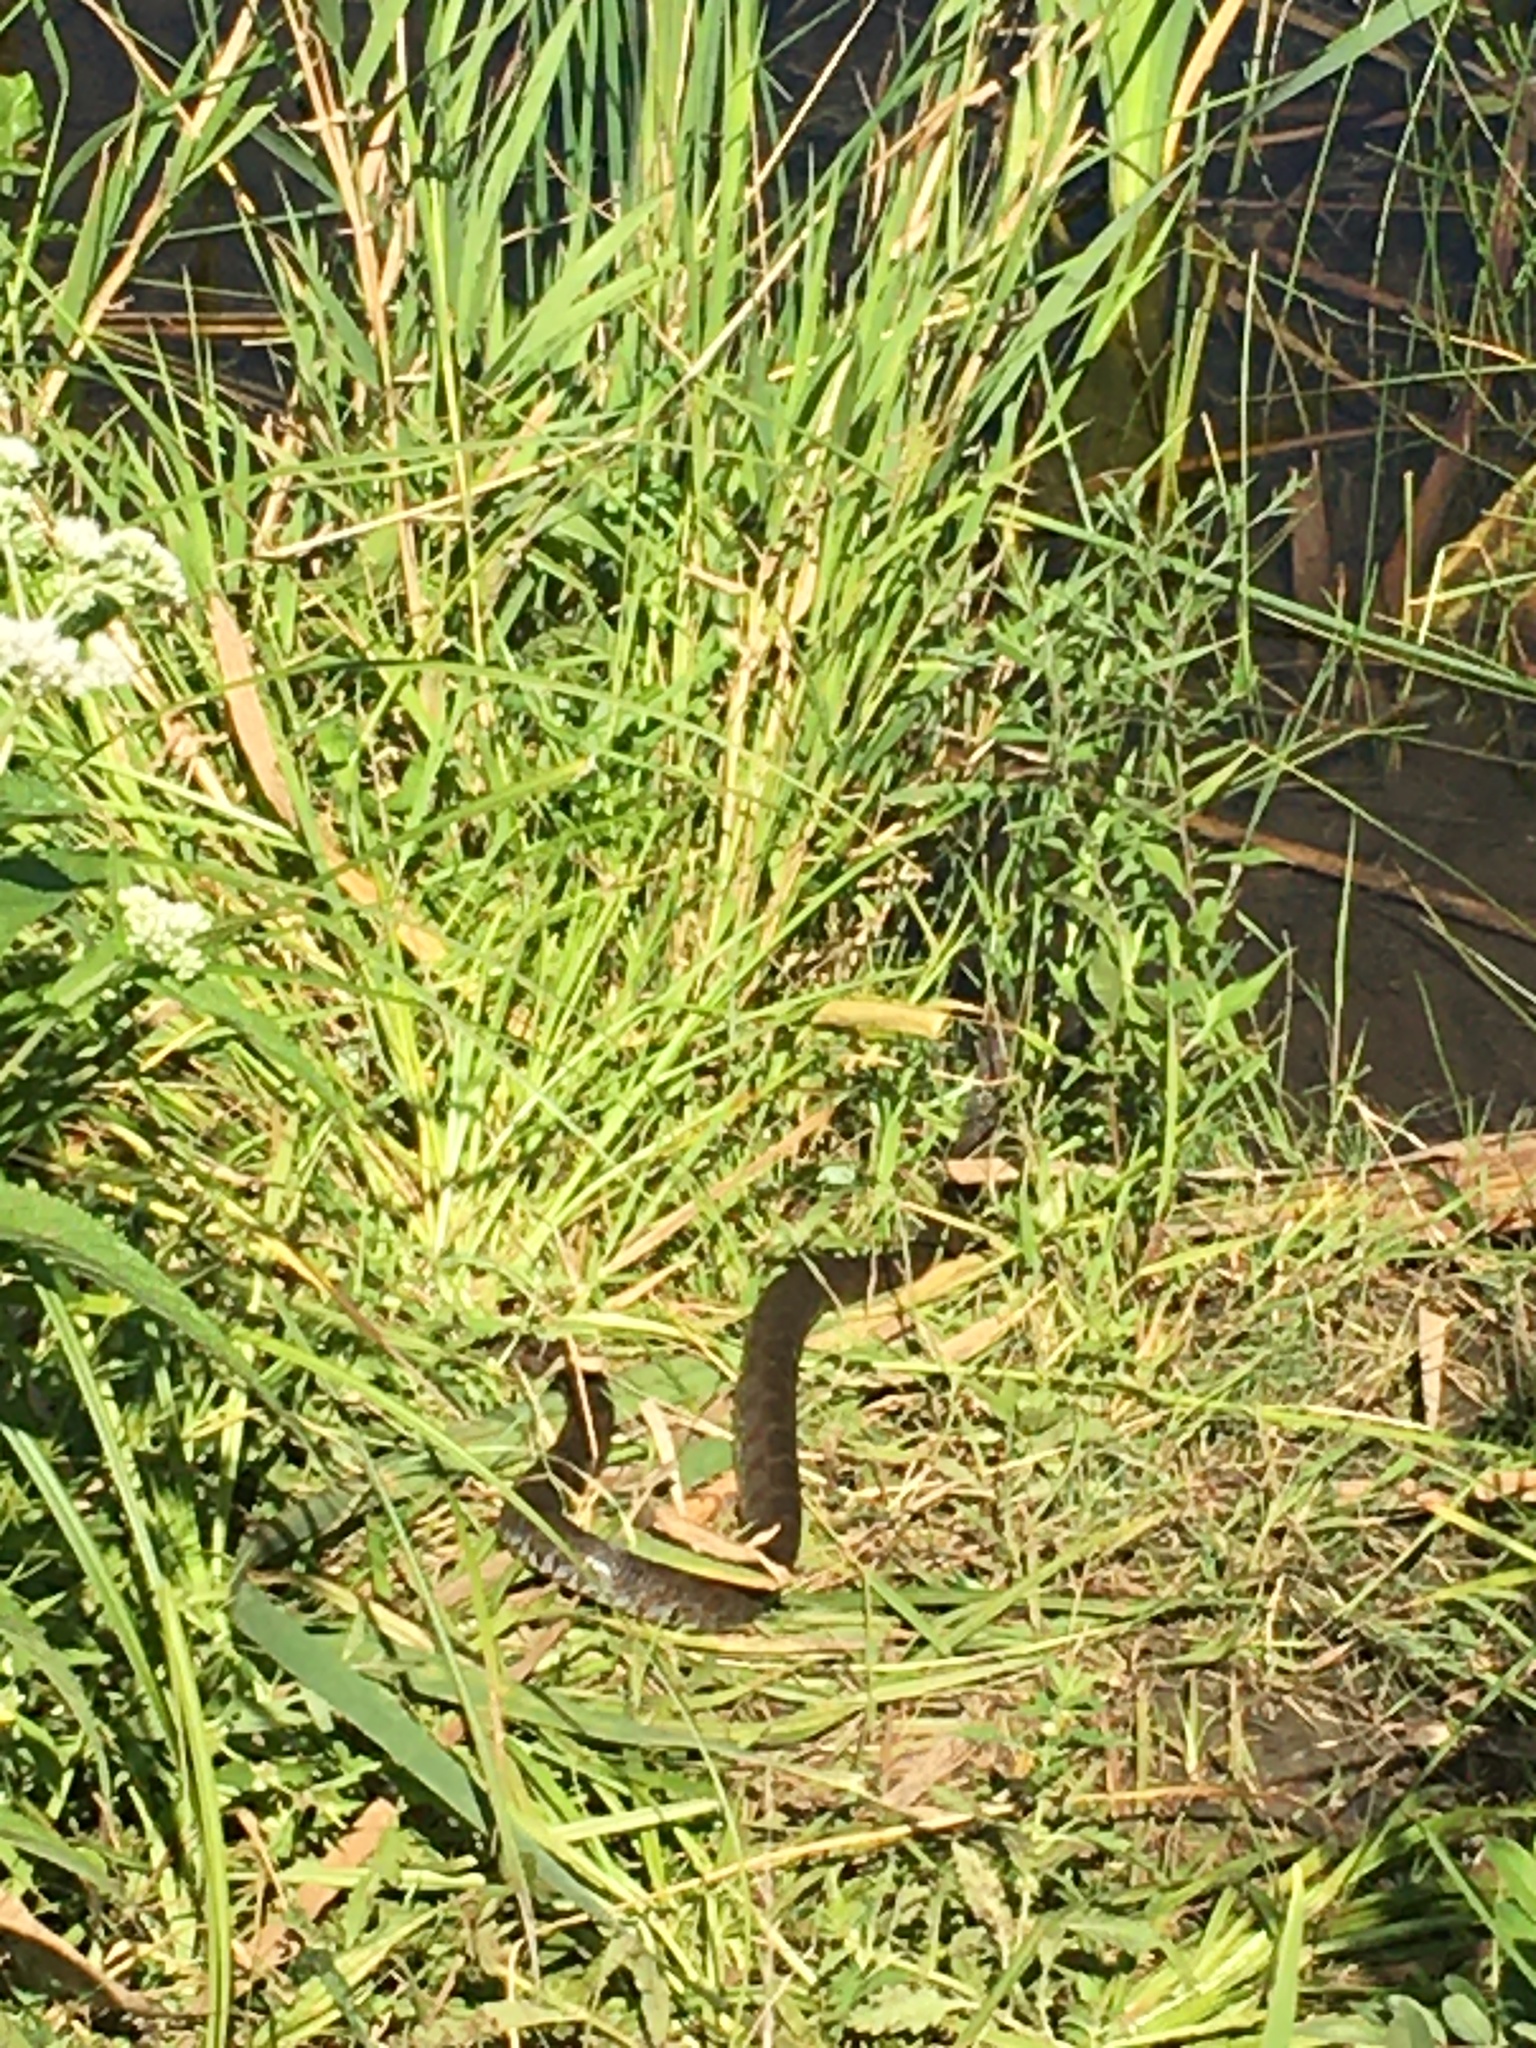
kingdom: Animalia
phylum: Chordata
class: Squamata
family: Colubridae
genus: Nerodia
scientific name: Nerodia sipedon
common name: Northern water snake
